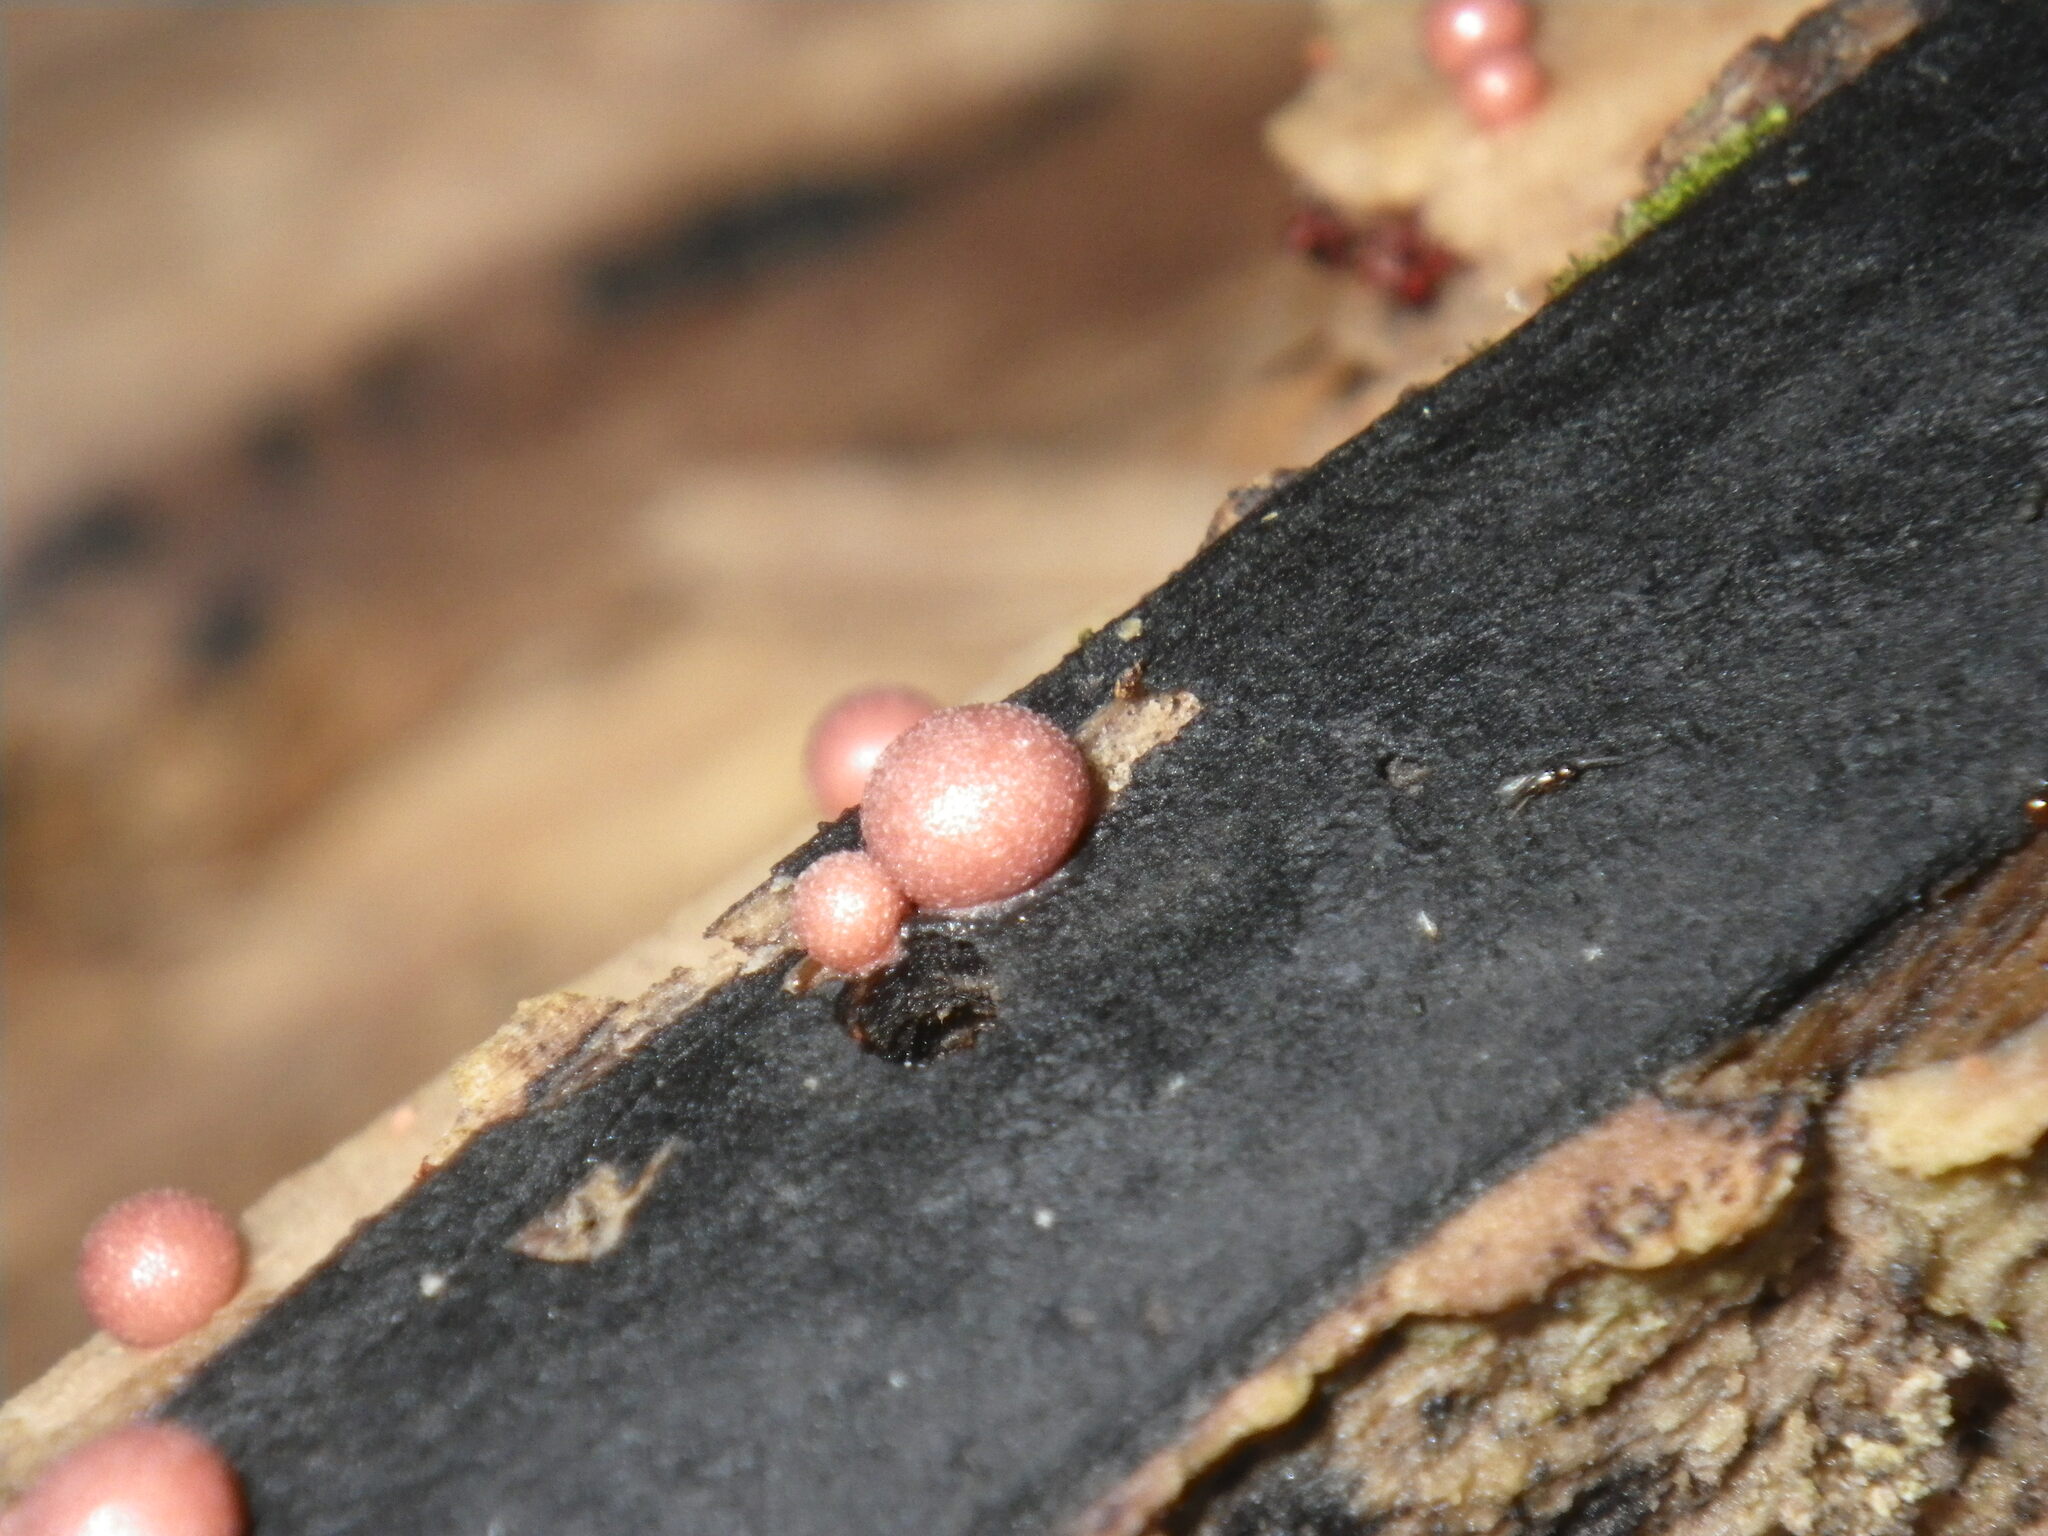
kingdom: Protozoa
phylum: Mycetozoa
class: Myxomycetes
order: Cribrariales
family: Tubiferaceae
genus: Lycogala
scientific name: Lycogala epidendrum
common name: Wolf's milk
